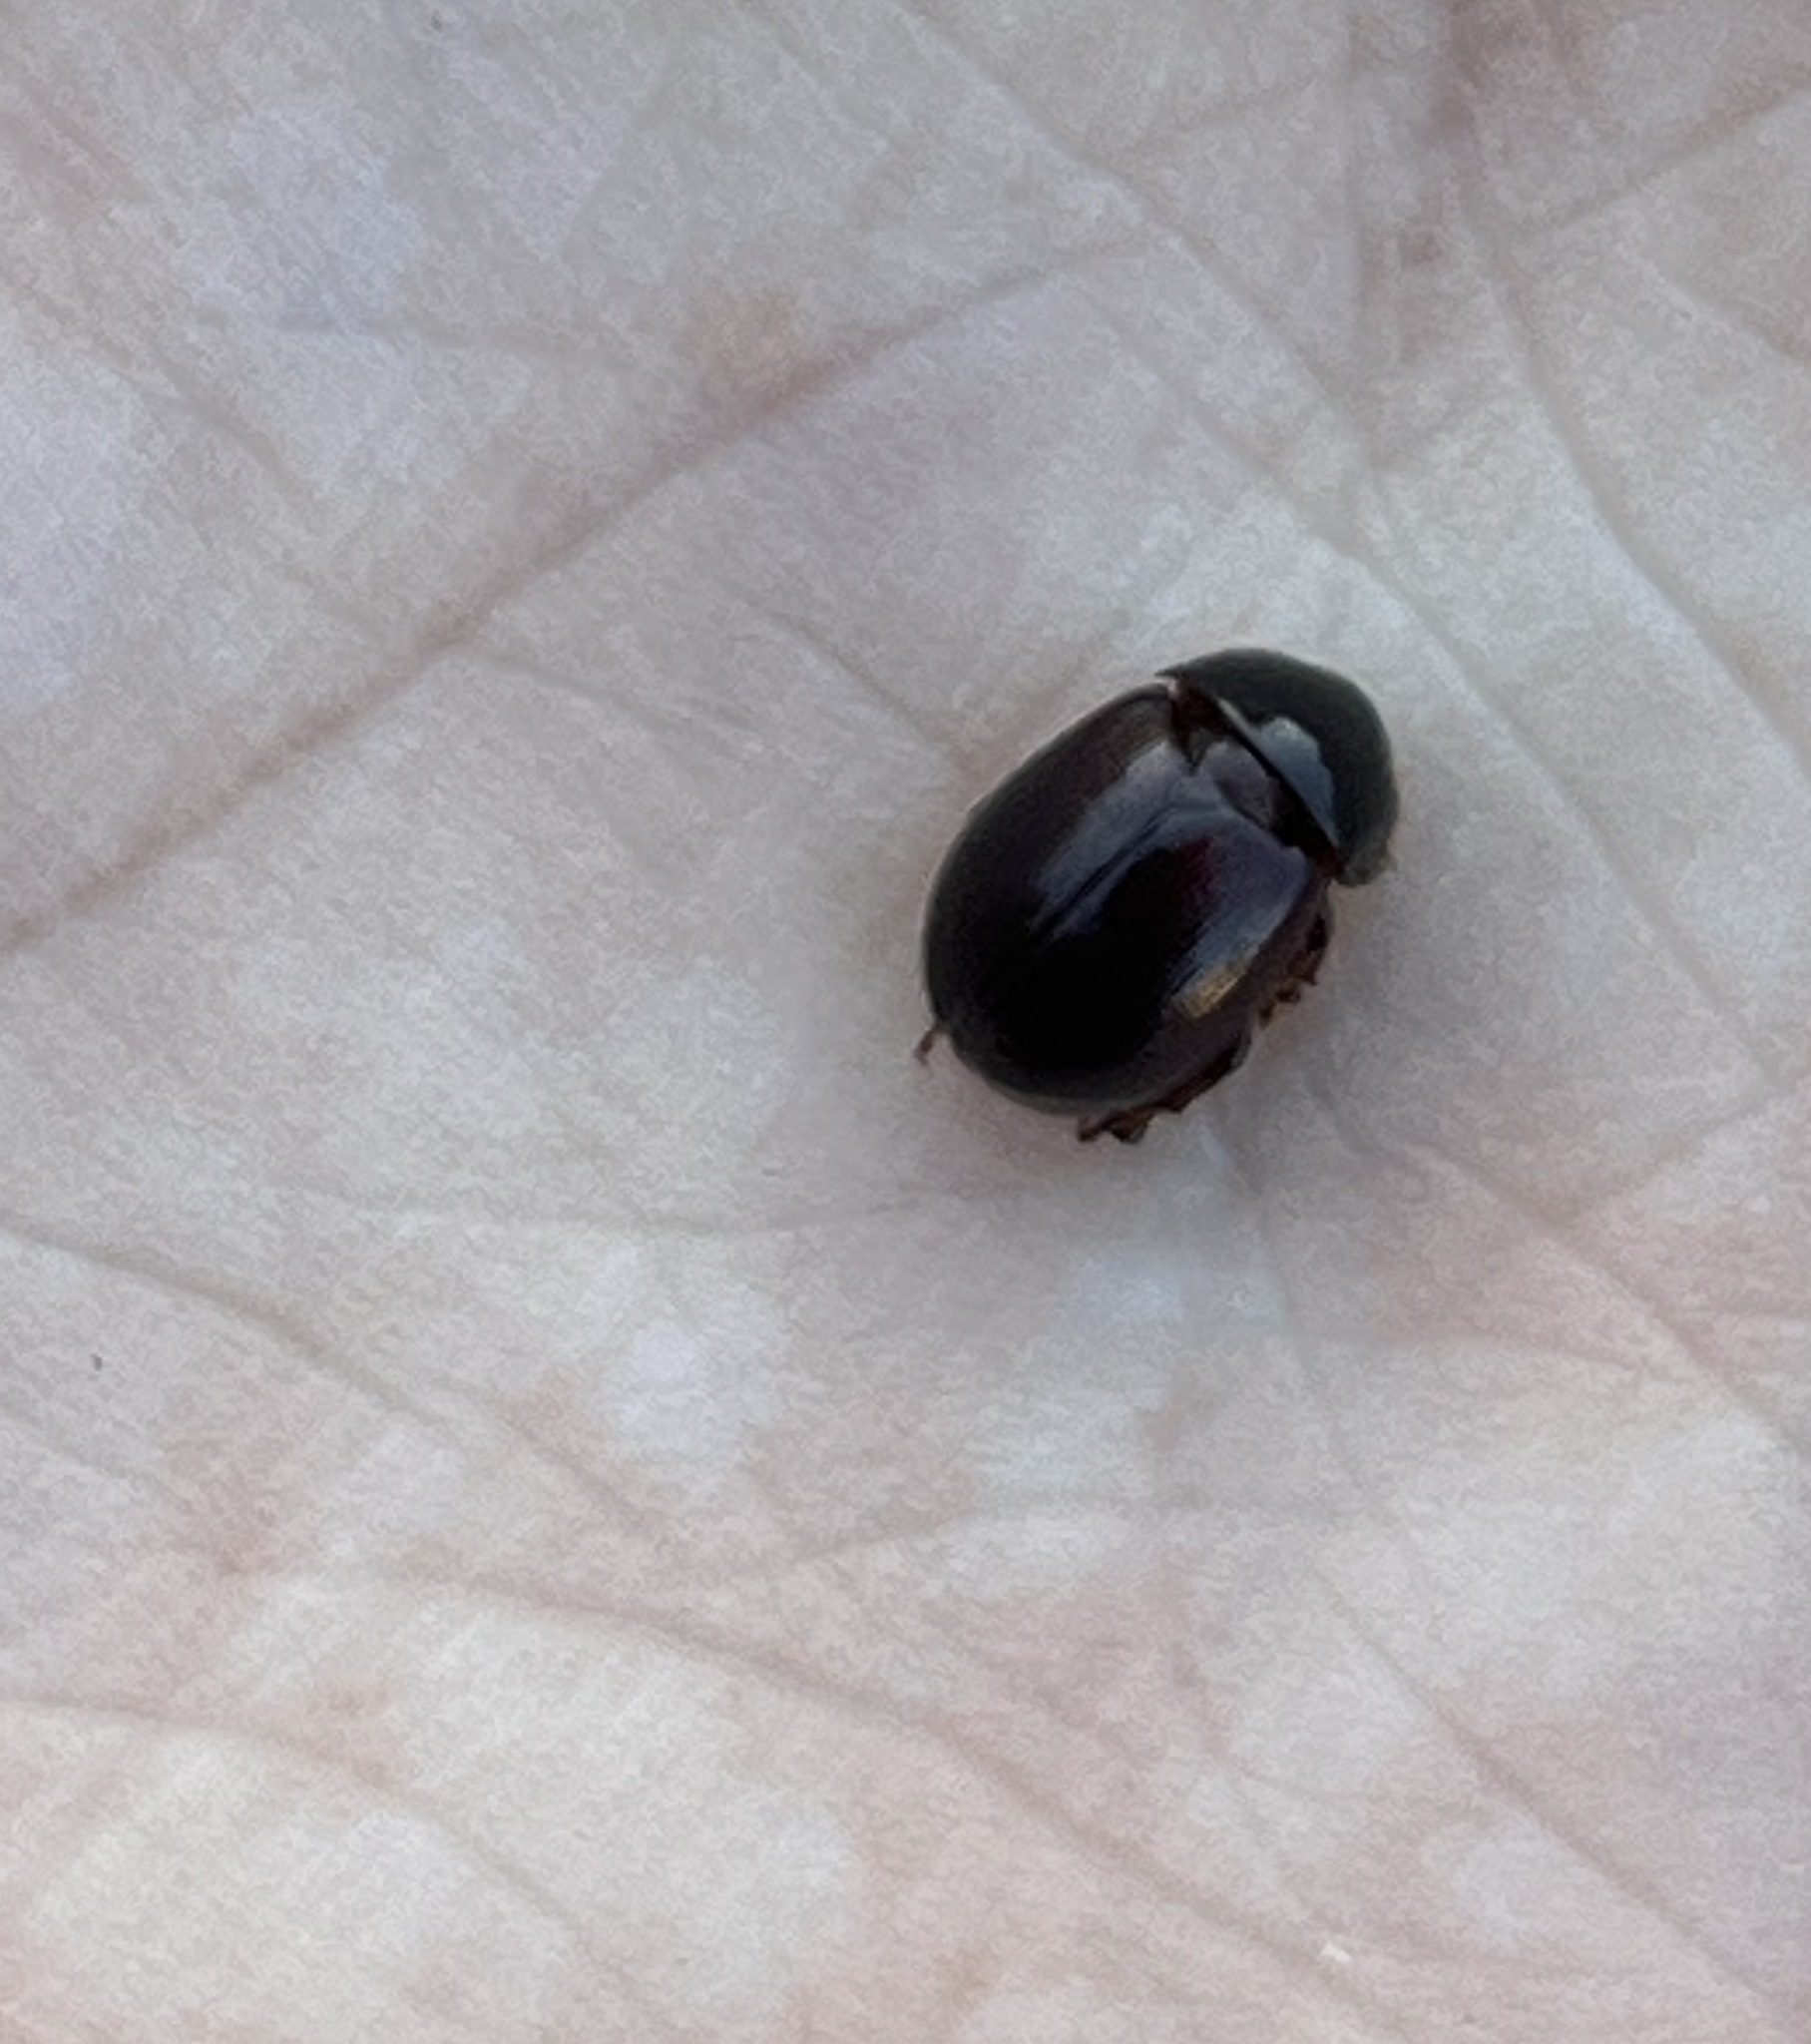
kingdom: Animalia
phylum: Arthropoda
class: Insecta
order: Coleoptera
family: Hybosoridae
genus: Hybosorus
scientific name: Hybosorus illigeri
